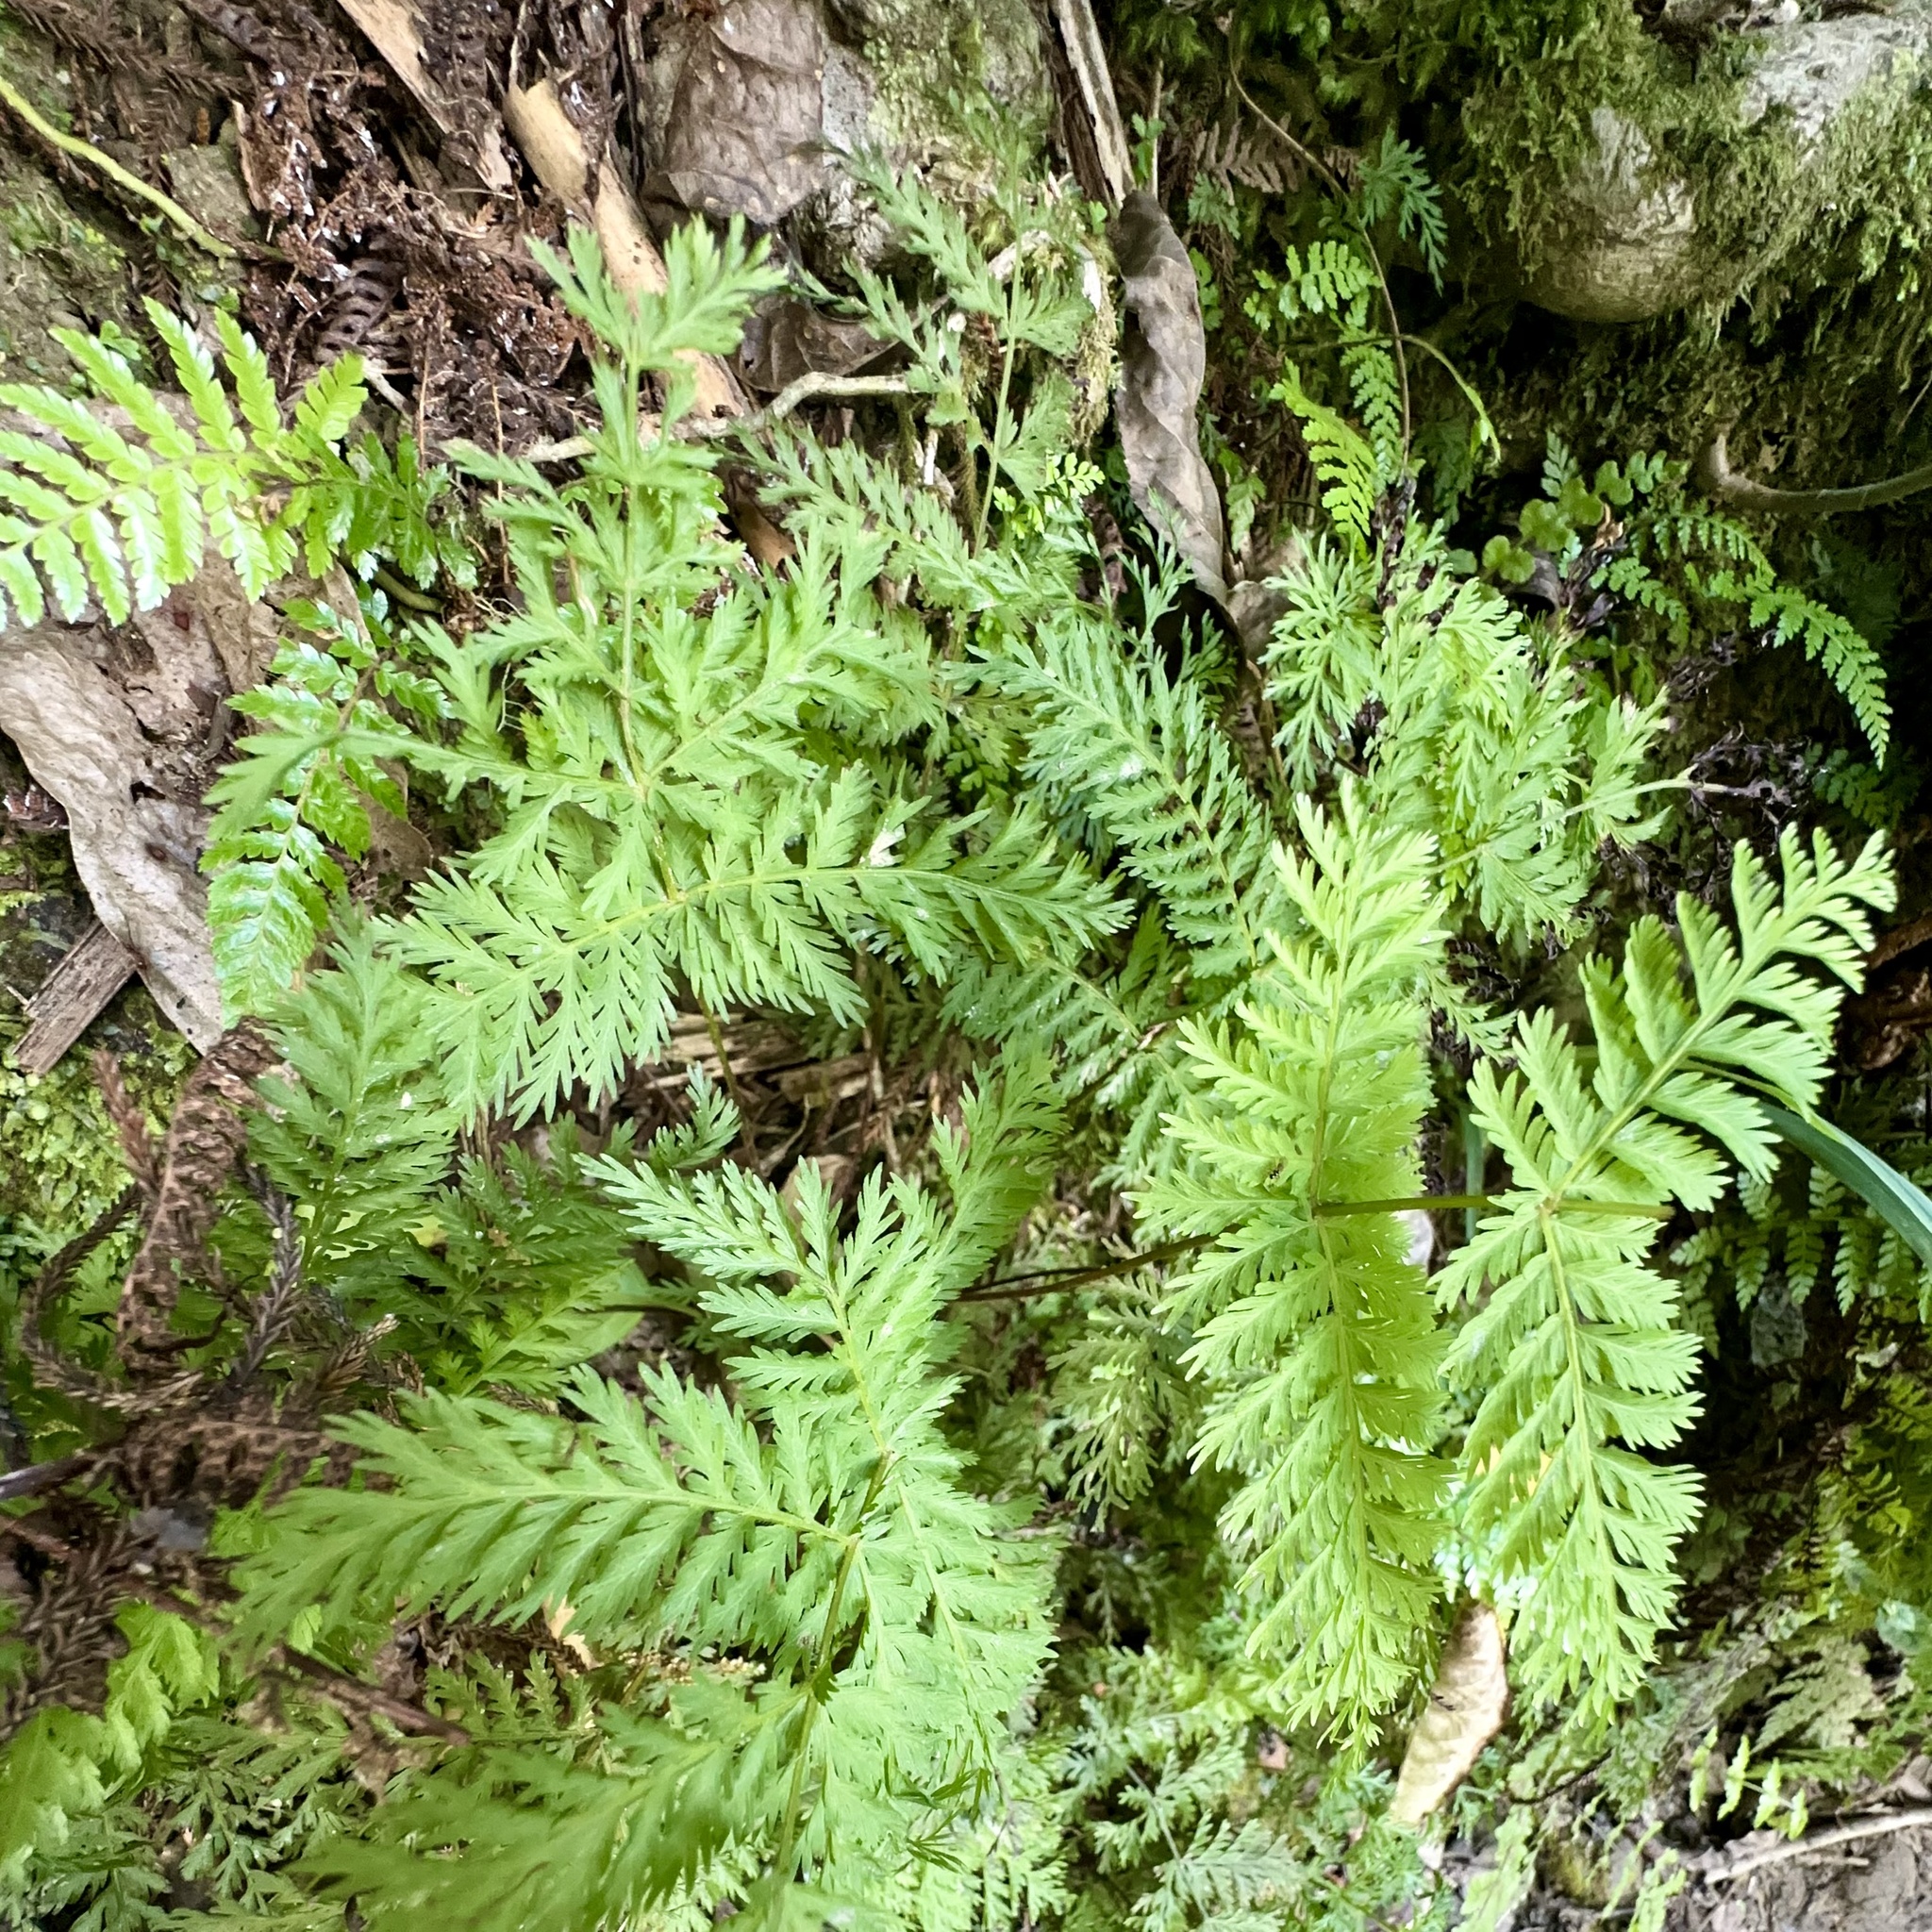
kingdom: Plantae
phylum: Tracheophyta
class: Polypodiopsida
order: Osmundales
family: Osmundaceae
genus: Leptopteris
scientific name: Leptopteris hymenophylloides
